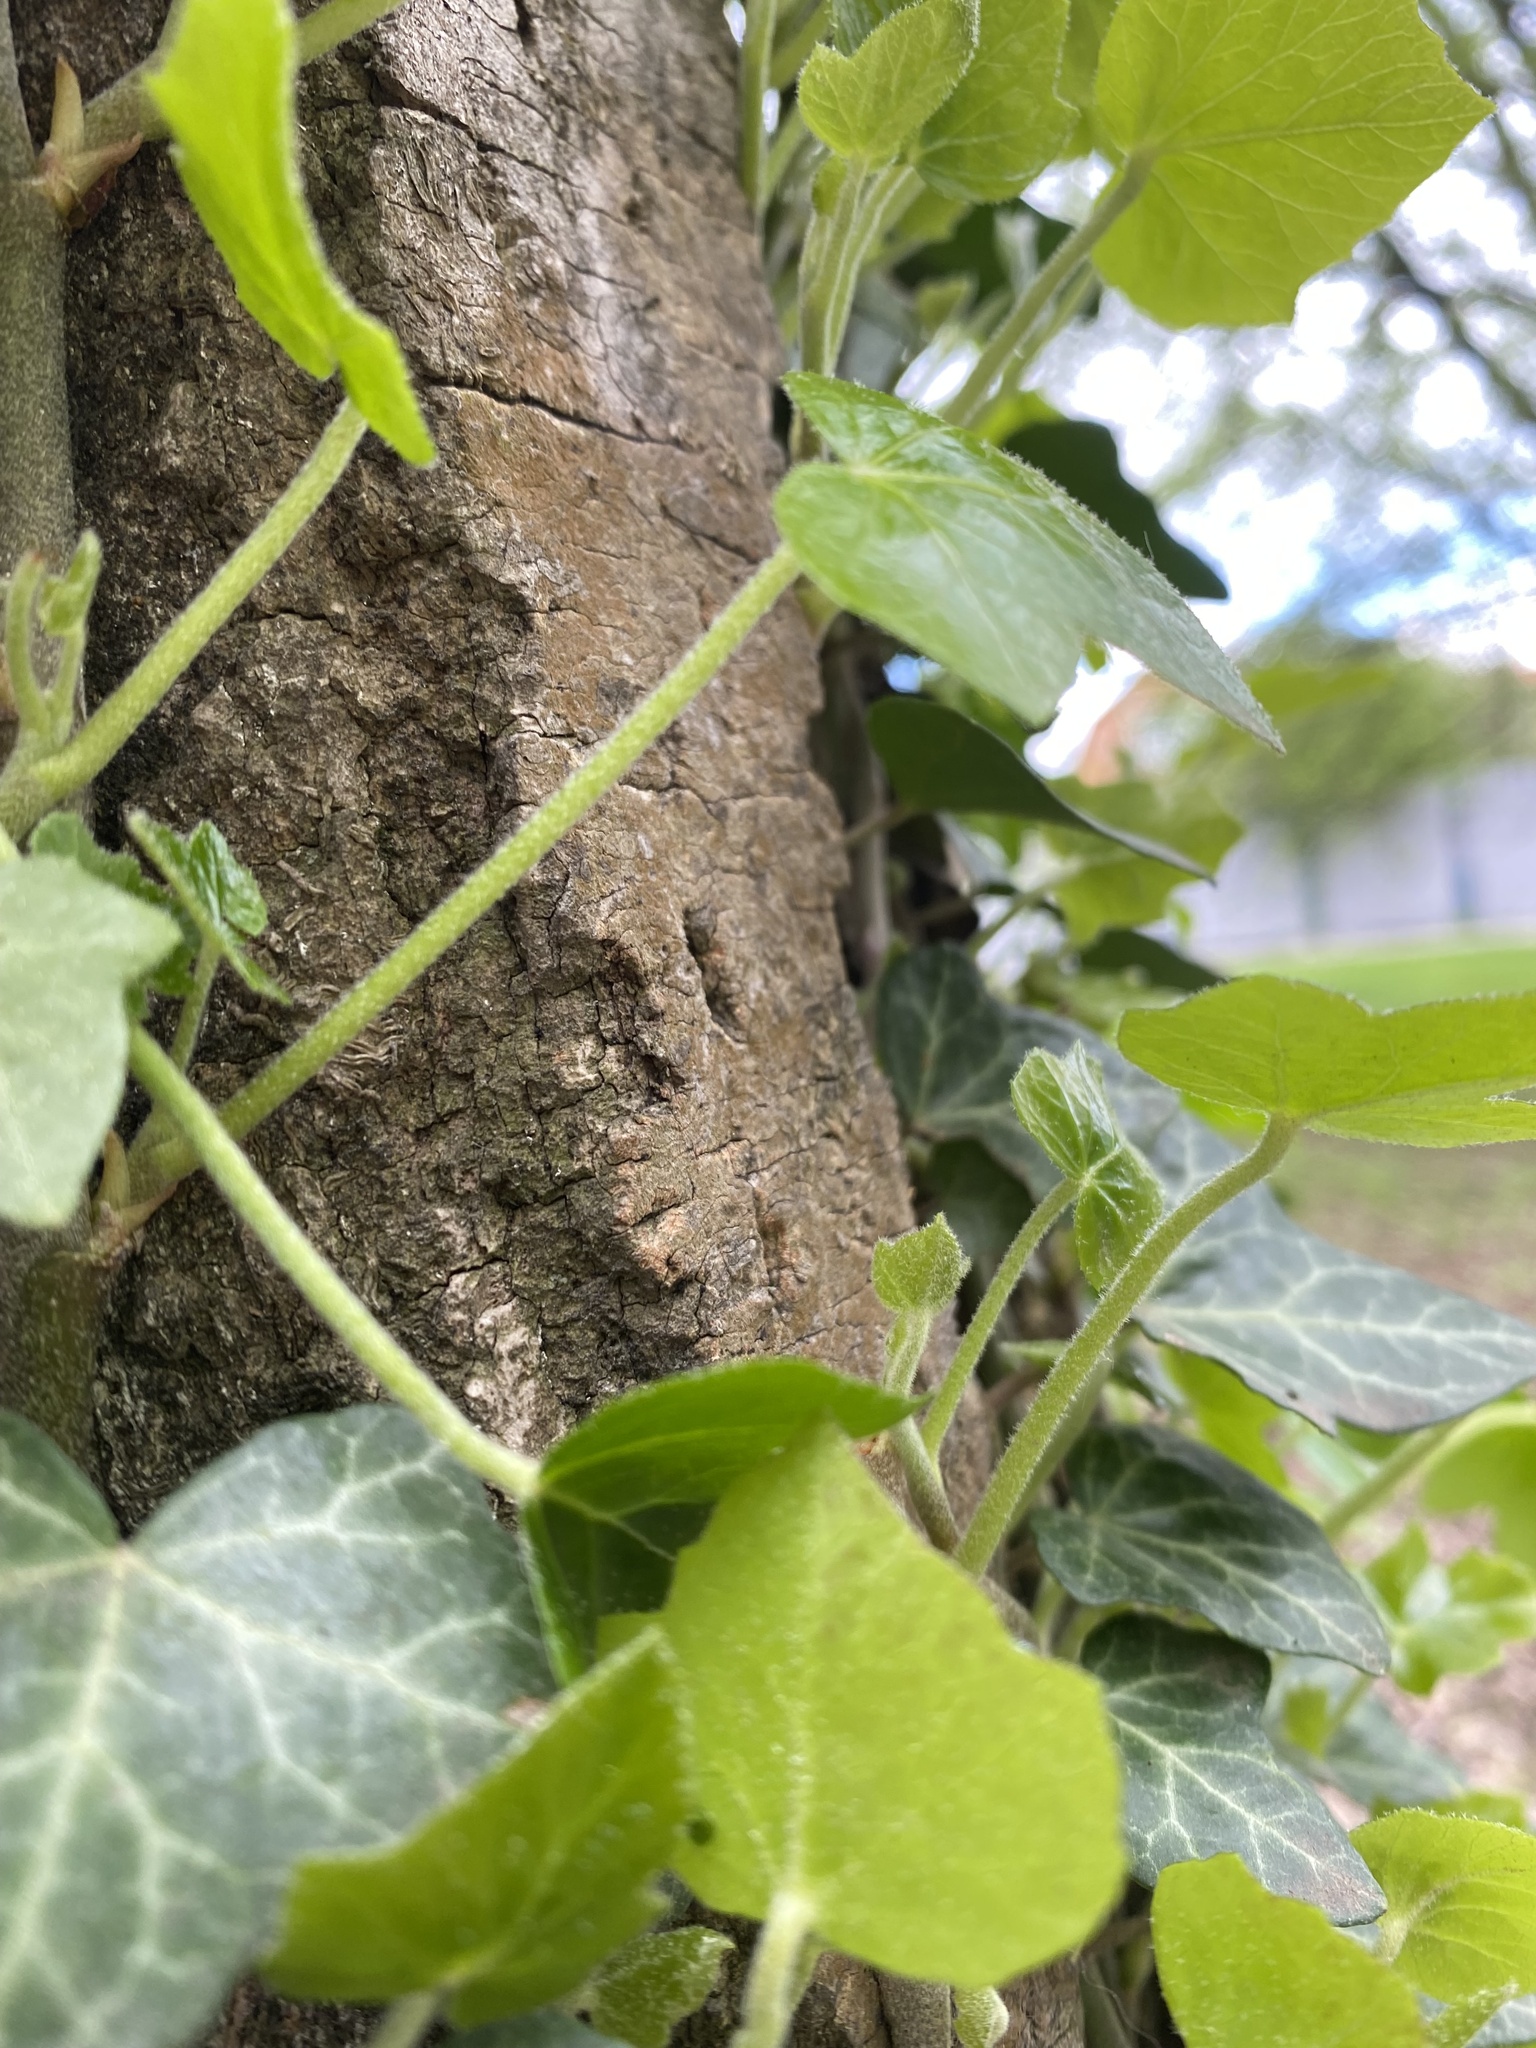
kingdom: Plantae
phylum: Tracheophyta
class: Magnoliopsida
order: Apiales
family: Araliaceae
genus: Hedera
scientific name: Hedera helix
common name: Ivy
